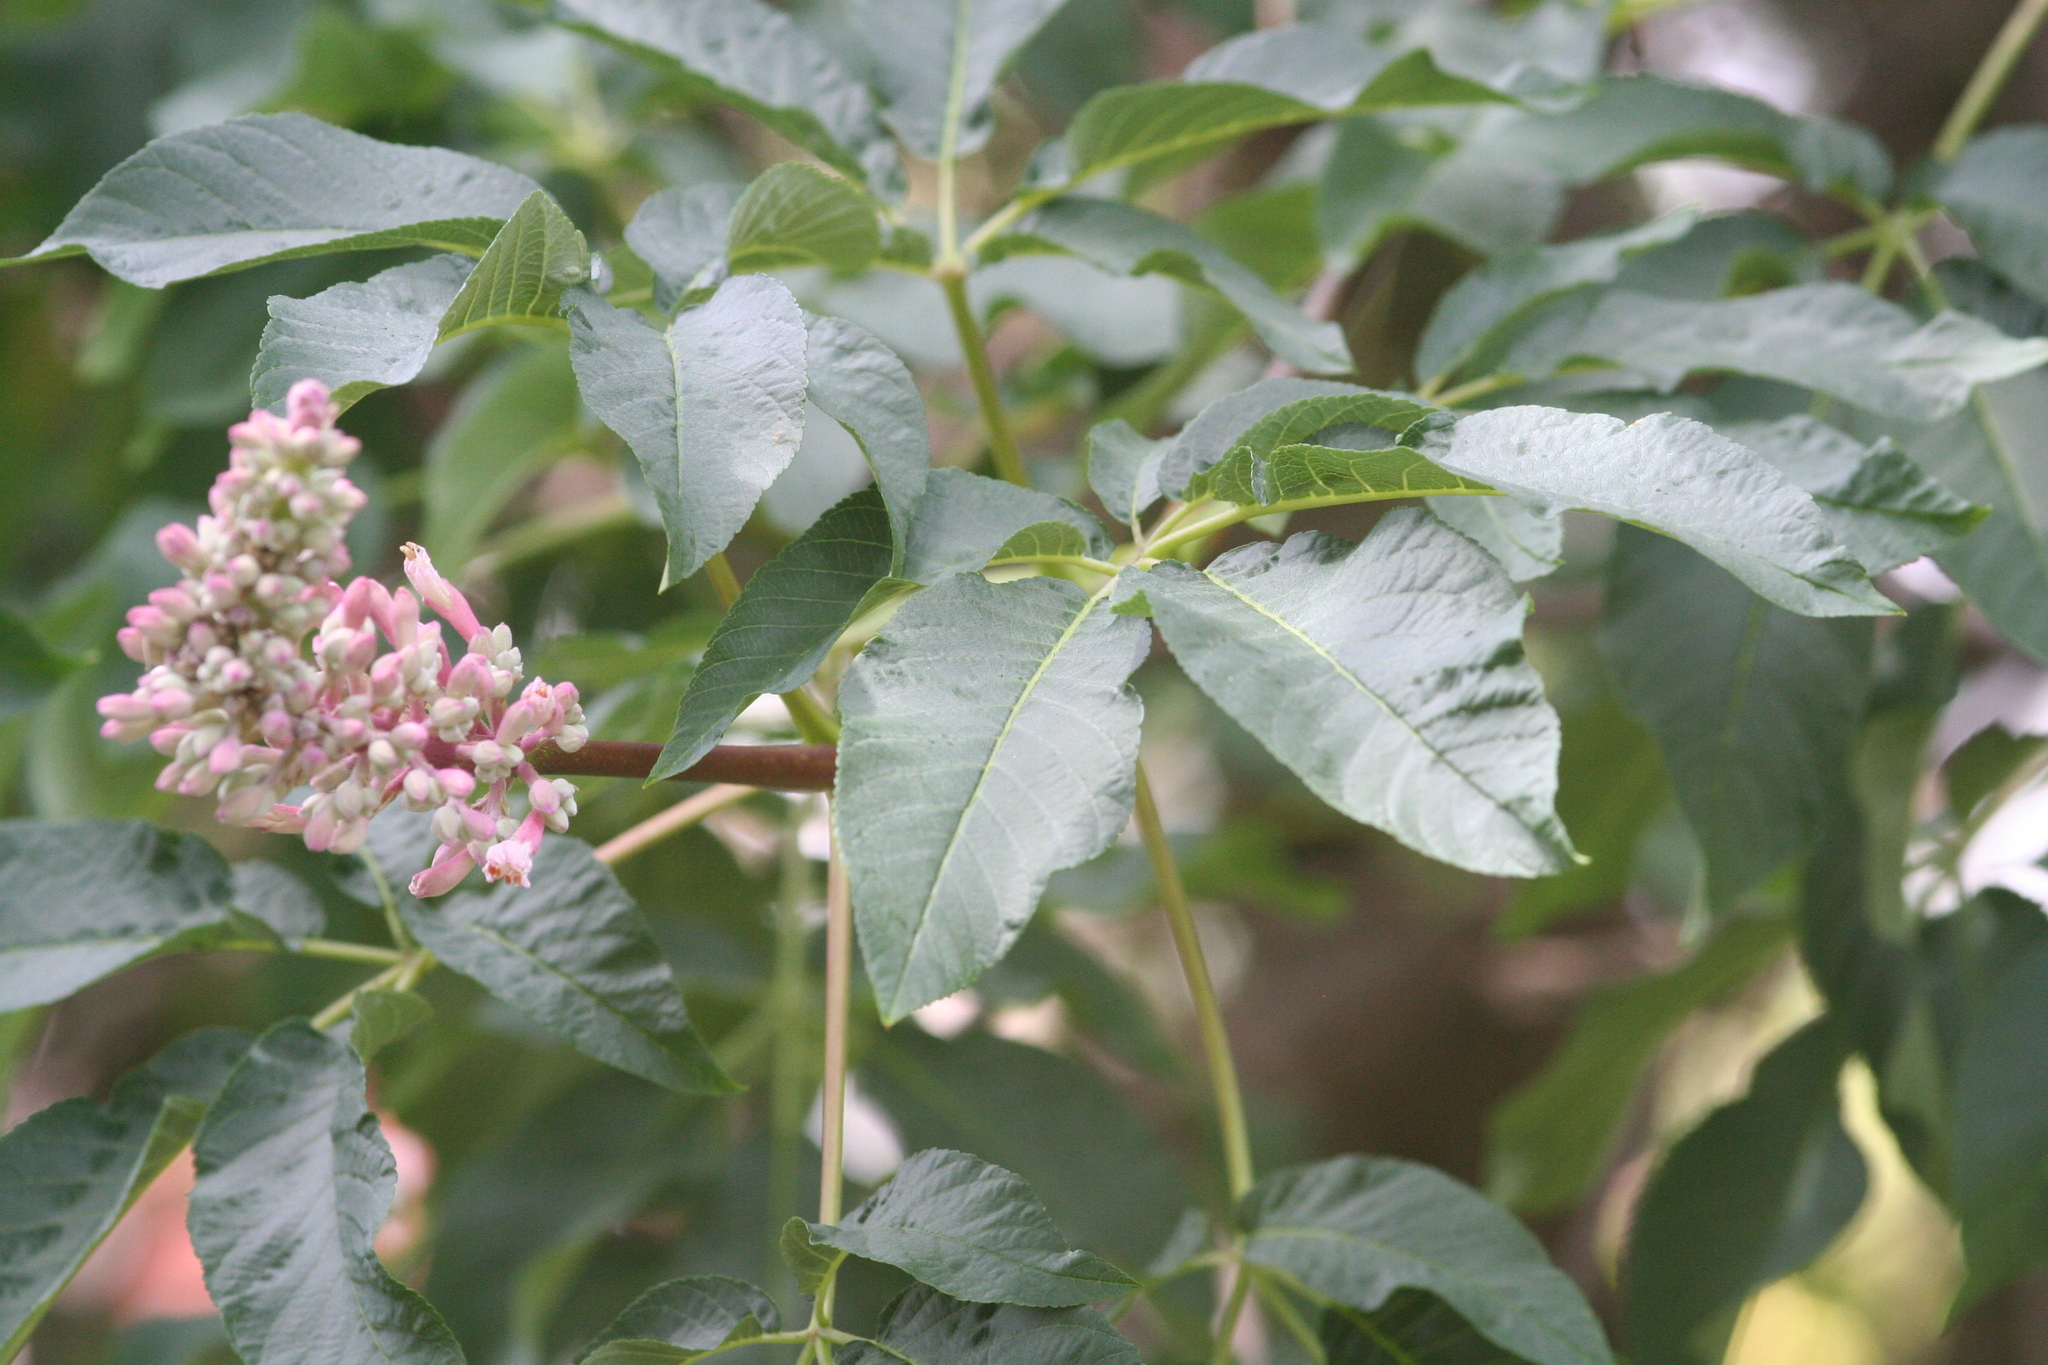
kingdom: Plantae
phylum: Tracheophyta
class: Magnoliopsida
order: Sapindales
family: Sapindaceae
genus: Aesculus
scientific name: Aesculus californica
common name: California buckeye
